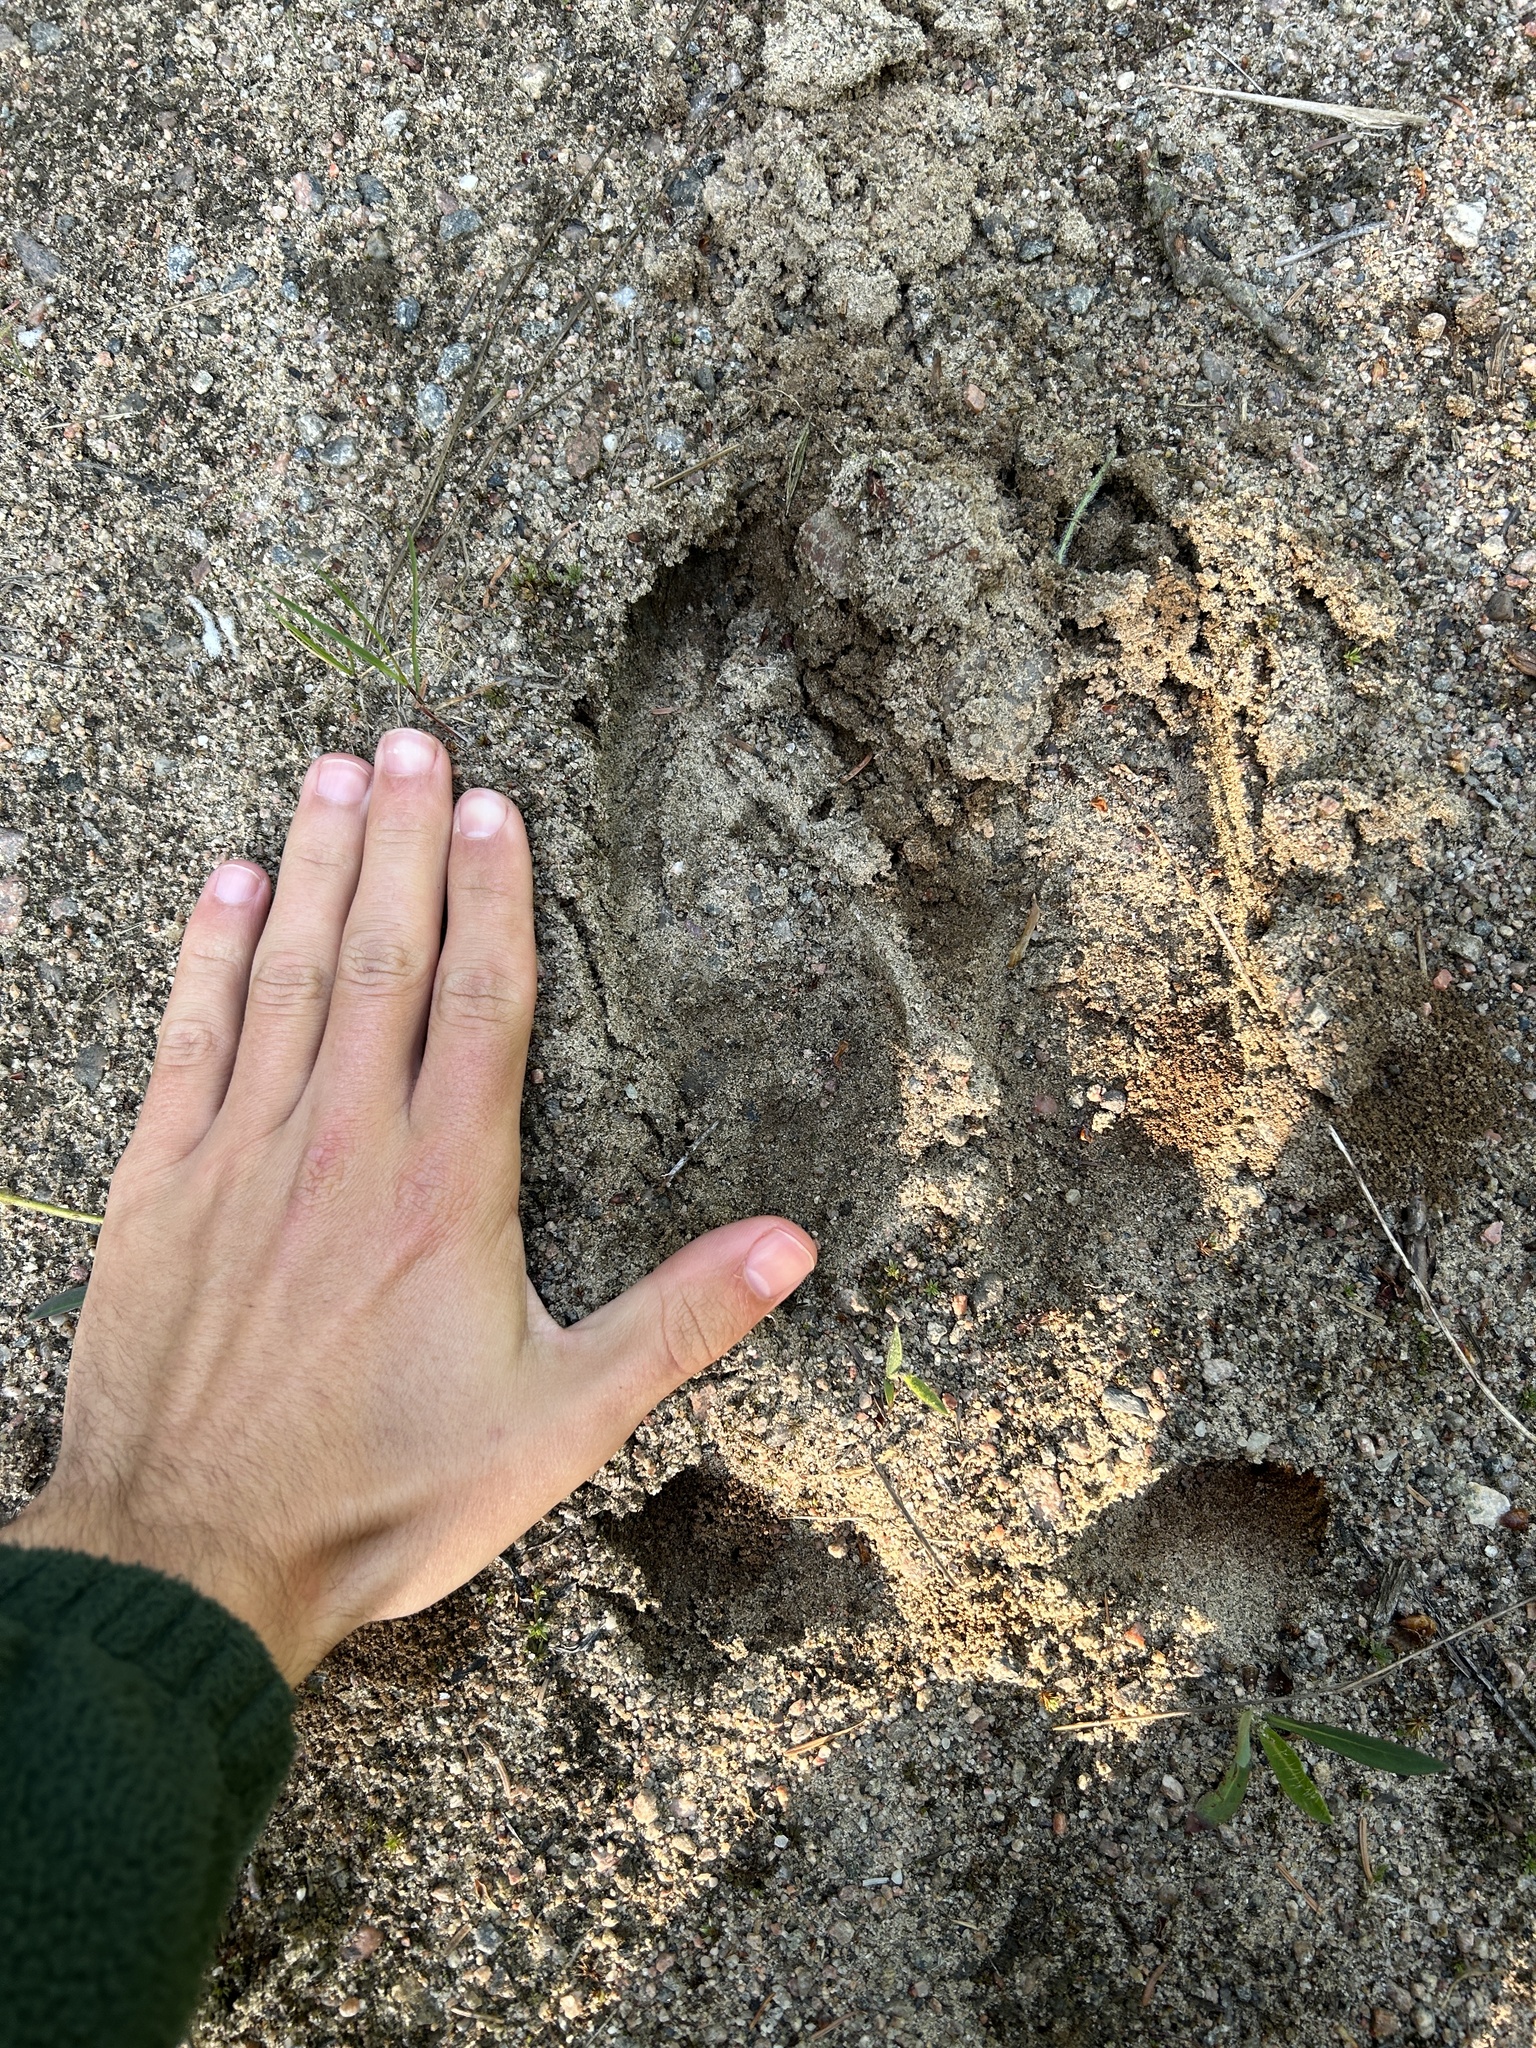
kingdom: Animalia
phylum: Chordata
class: Mammalia
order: Artiodactyla
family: Cervidae
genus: Alces
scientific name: Alces alces
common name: Moose
